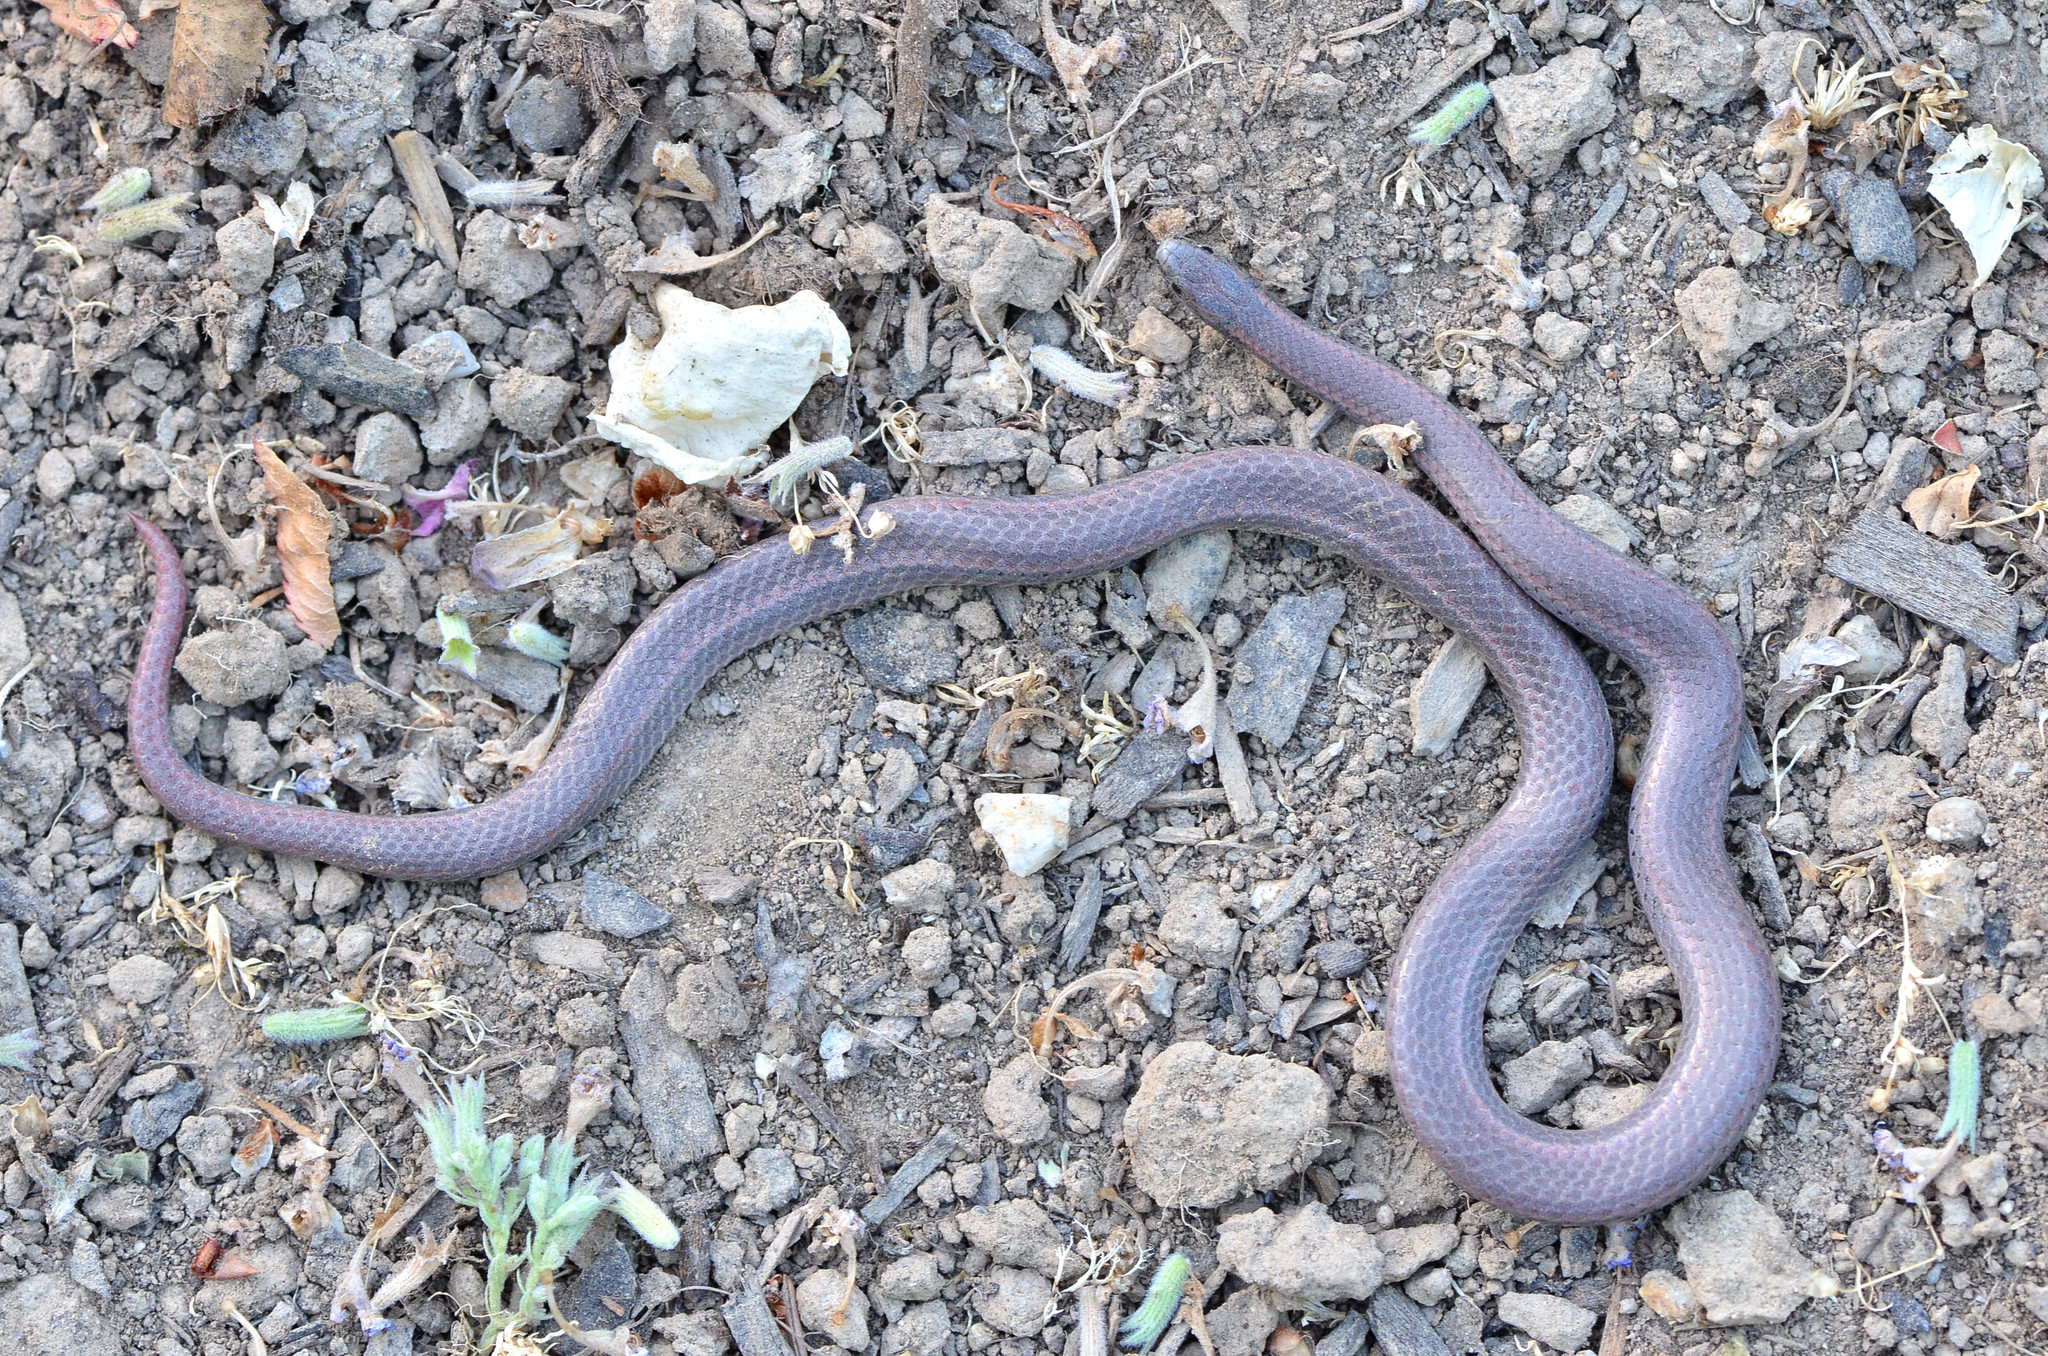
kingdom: Animalia
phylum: Chordata
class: Squamata
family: Colubridae
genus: Contia
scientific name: Contia tenuis
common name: Sharptail snake
